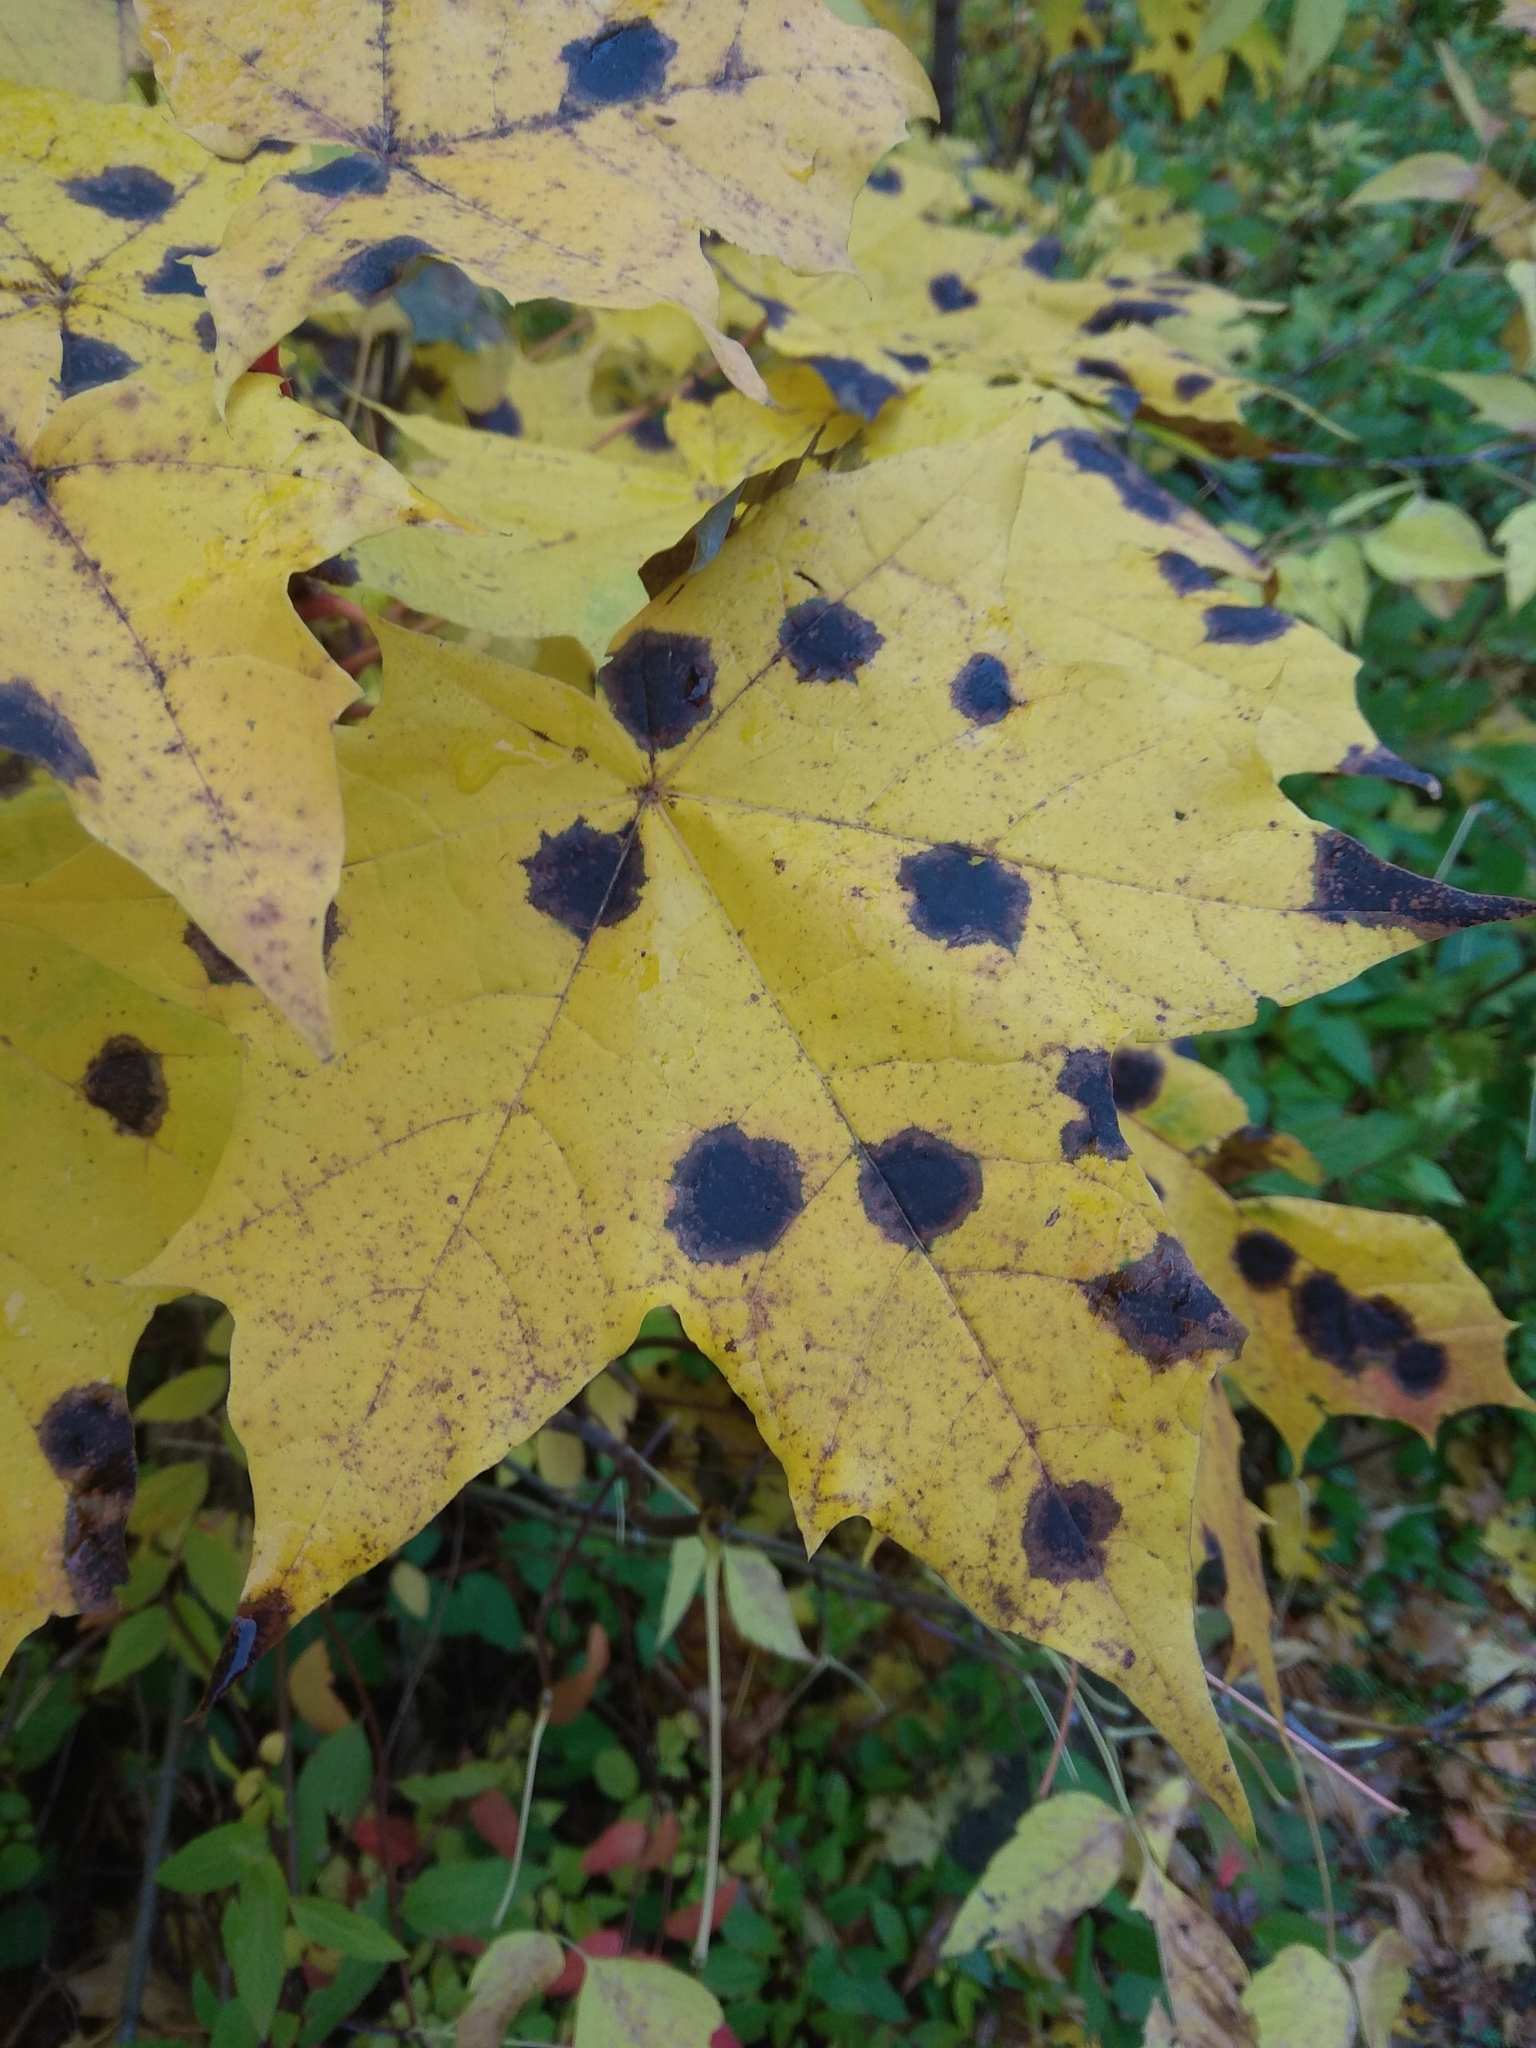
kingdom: Fungi
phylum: Ascomycota
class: Leotiomycetes
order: Rhytismatales
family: Rhytismataceae
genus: Rhytisma
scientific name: Rhytisma acerinum
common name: European tar spot
